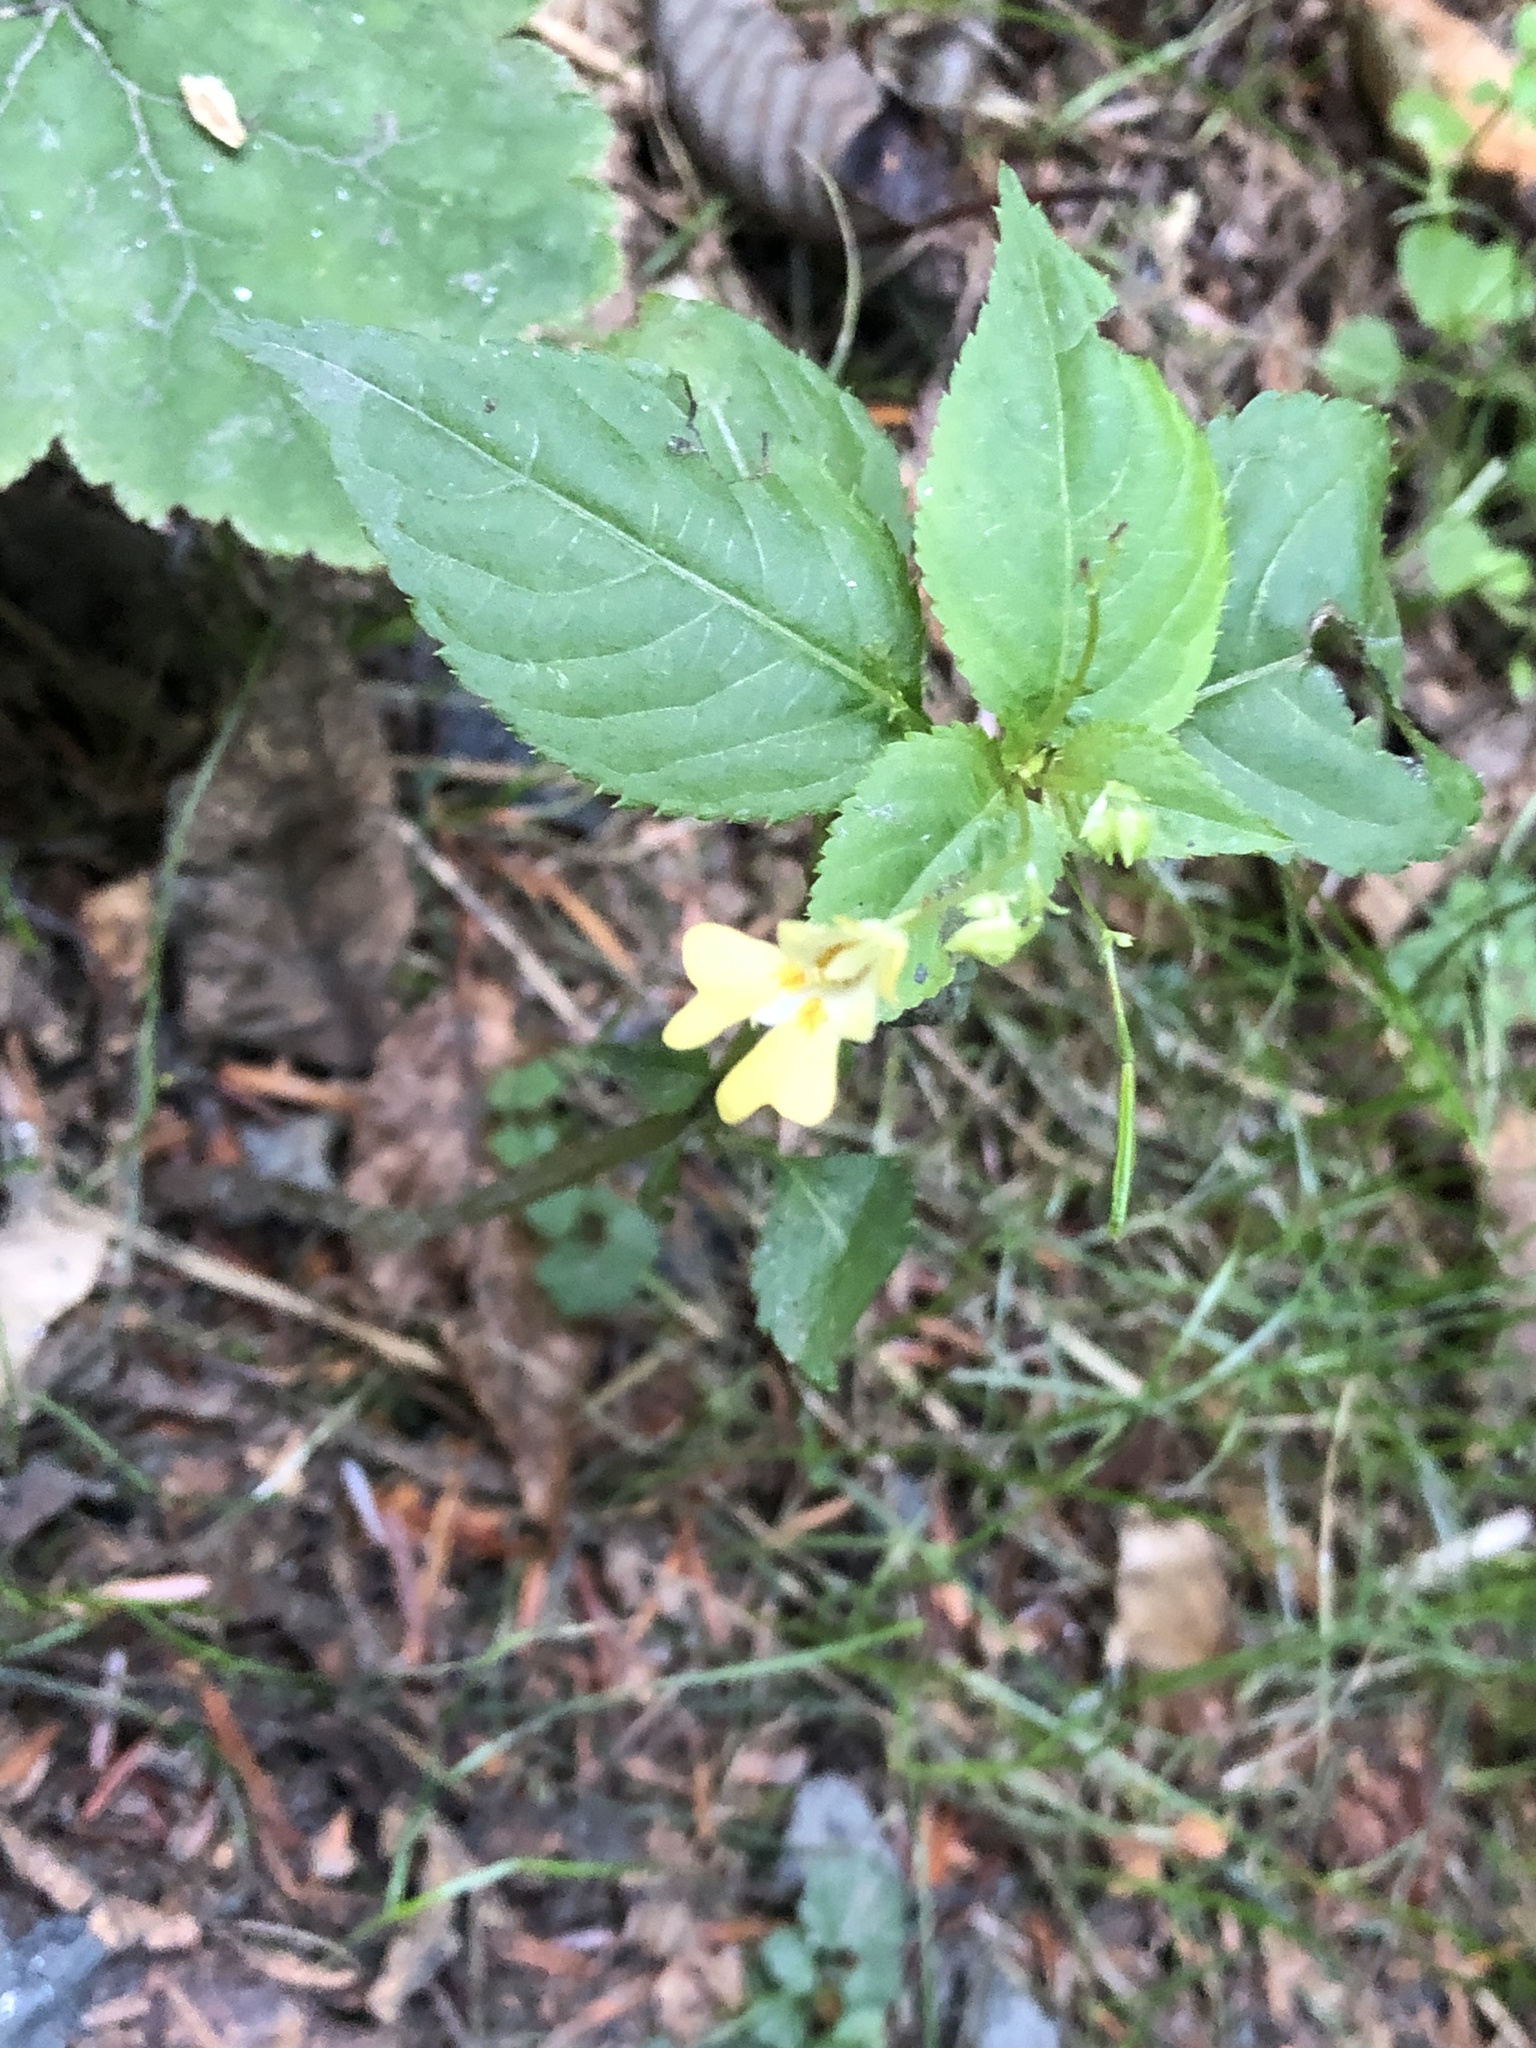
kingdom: Plantae
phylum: Tracheophyta
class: Magnoliopsida
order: Ericales
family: Balsaminaceae
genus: Impatiens
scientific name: Impatiens parviflora
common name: Small balsam
